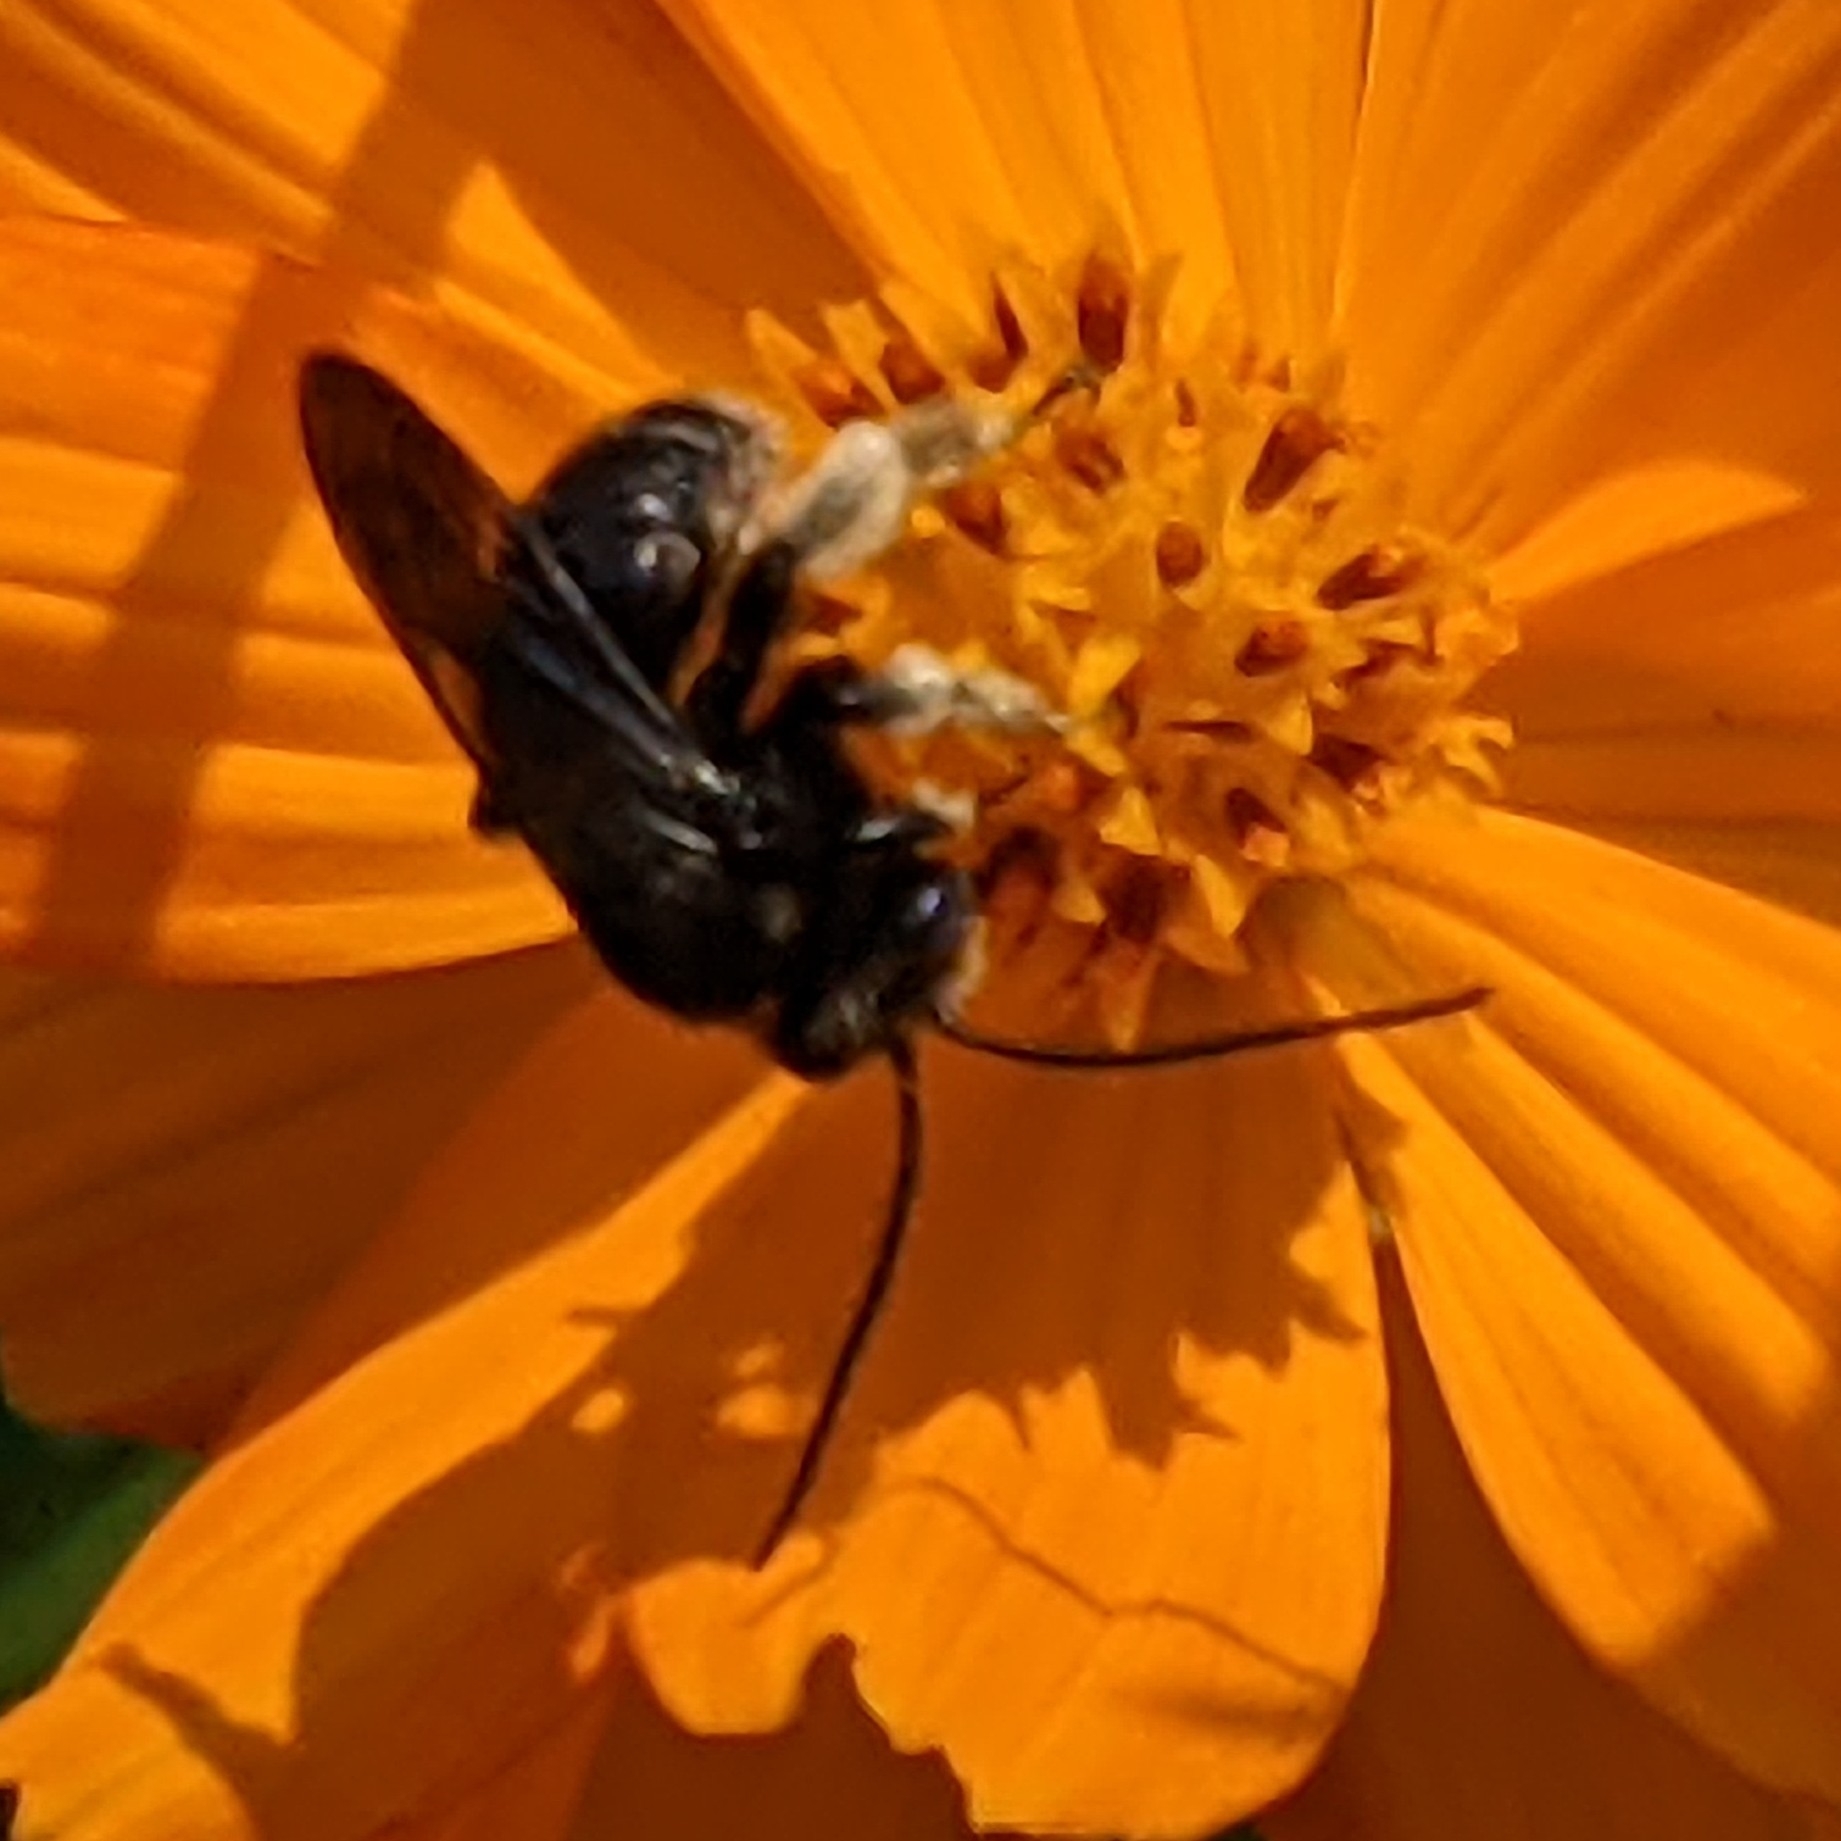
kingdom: Animalia
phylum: Arthropoda
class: Insecta
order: Hymenoptera
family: Apidae
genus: Melissodes
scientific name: Melissodes bimaculatus
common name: Two-spotted long-horned bee
